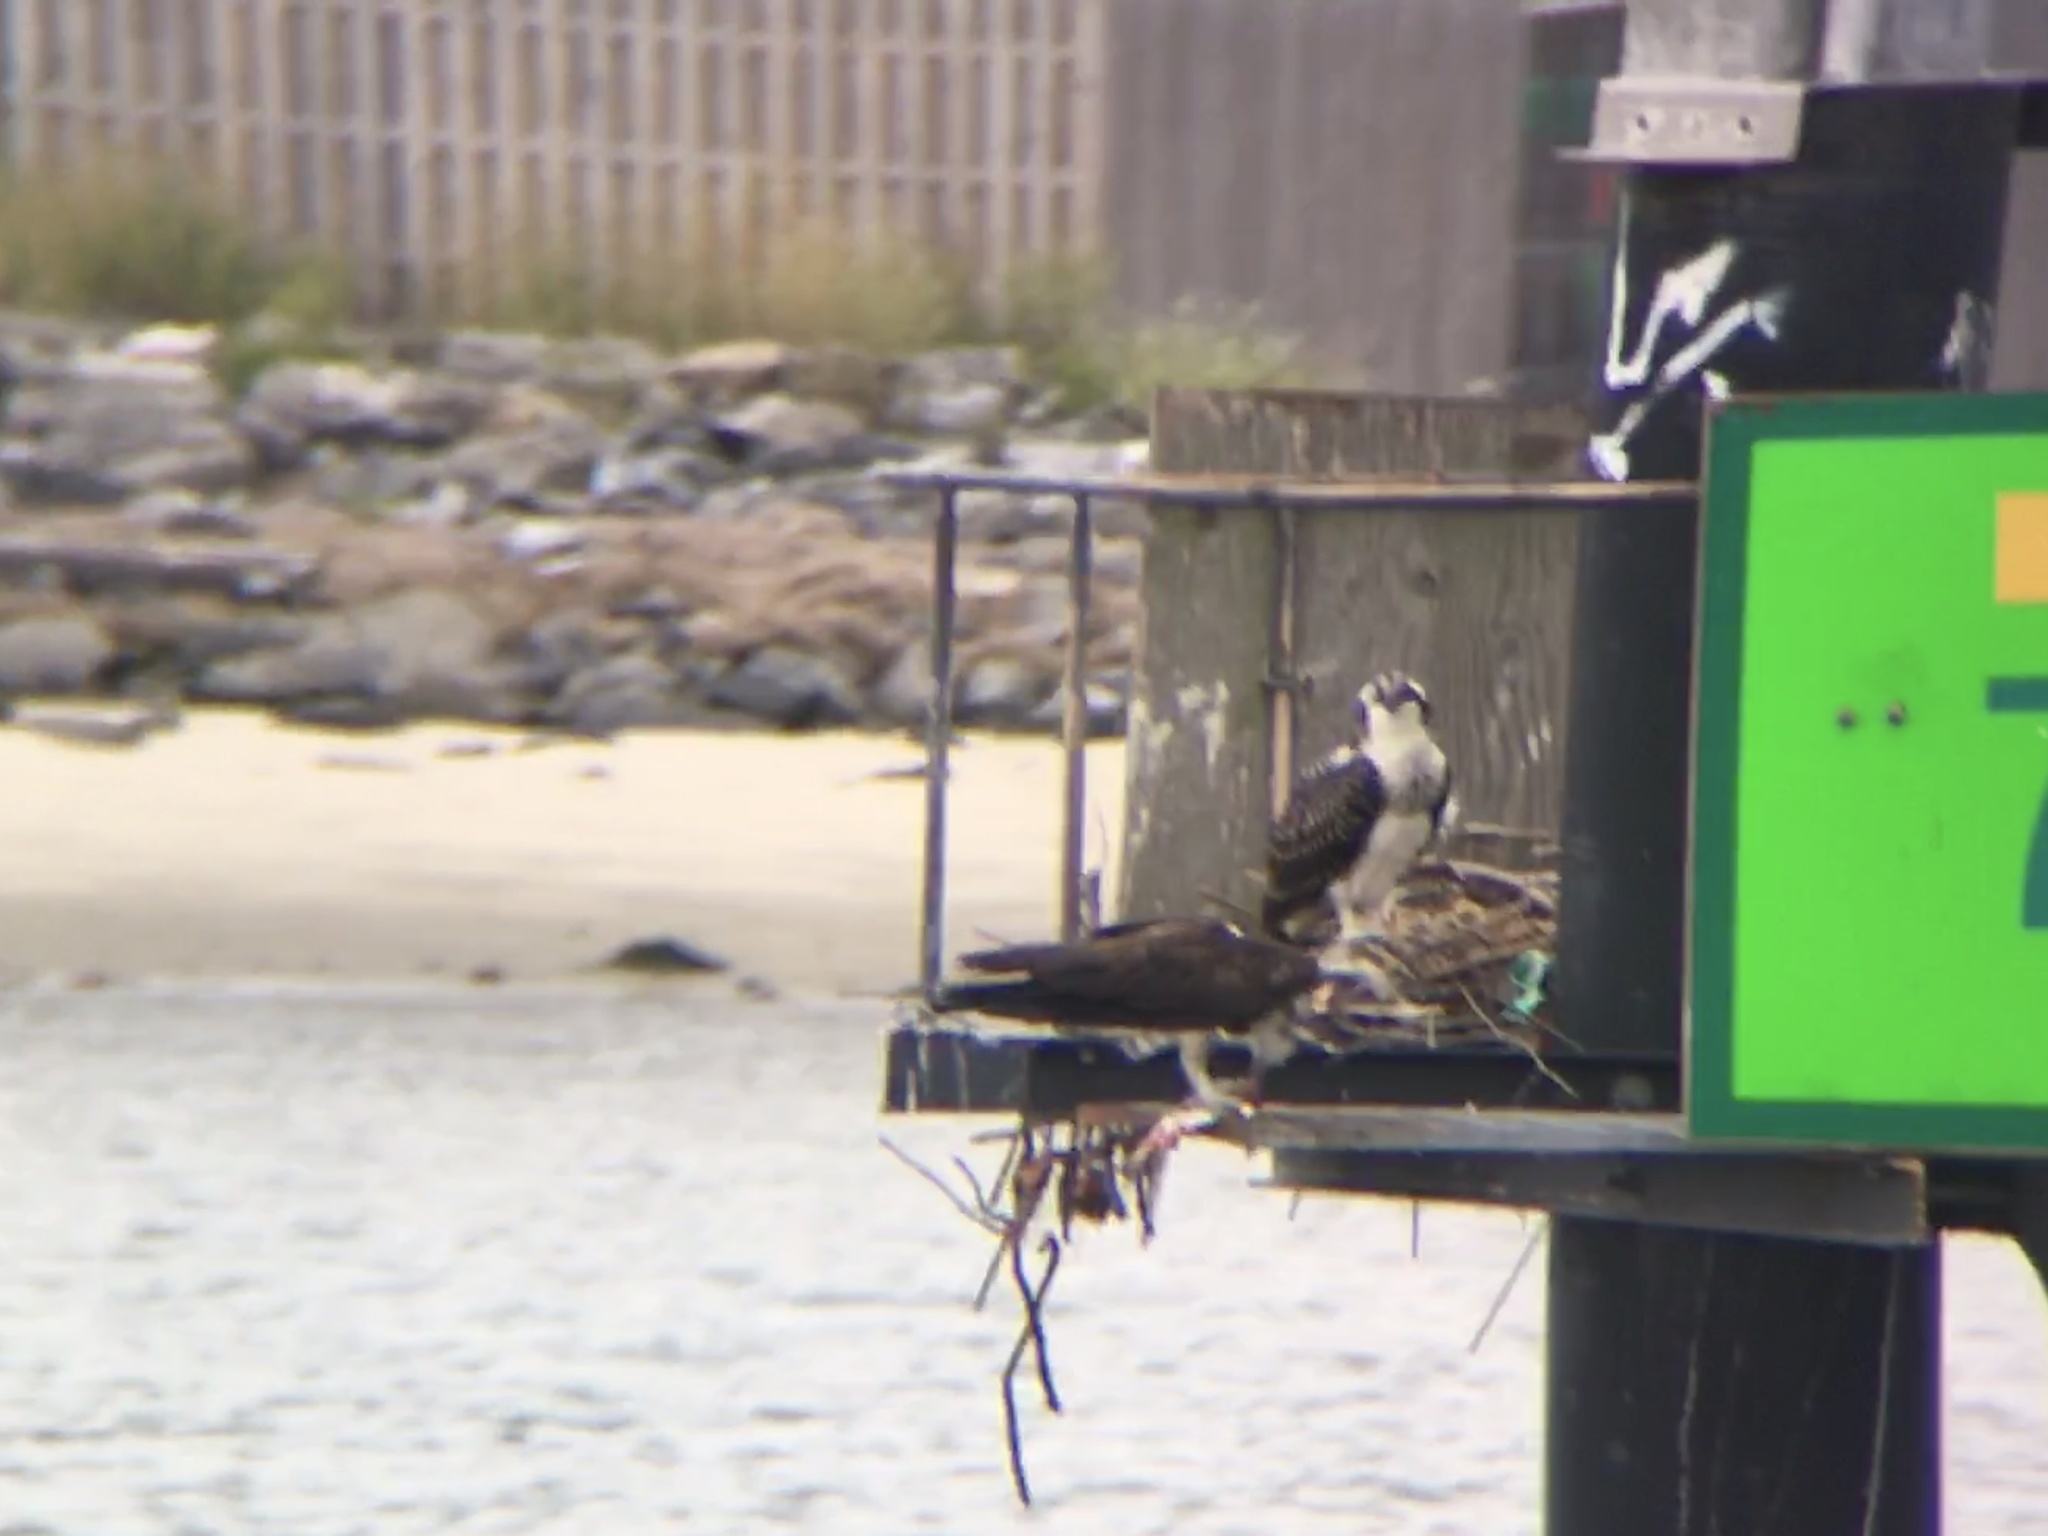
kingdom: Animalia
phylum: Chordata
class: Aves
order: Accipitriformes
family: Pandionidae
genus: Pandion
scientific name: Pandion haliaetus
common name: Osprey
